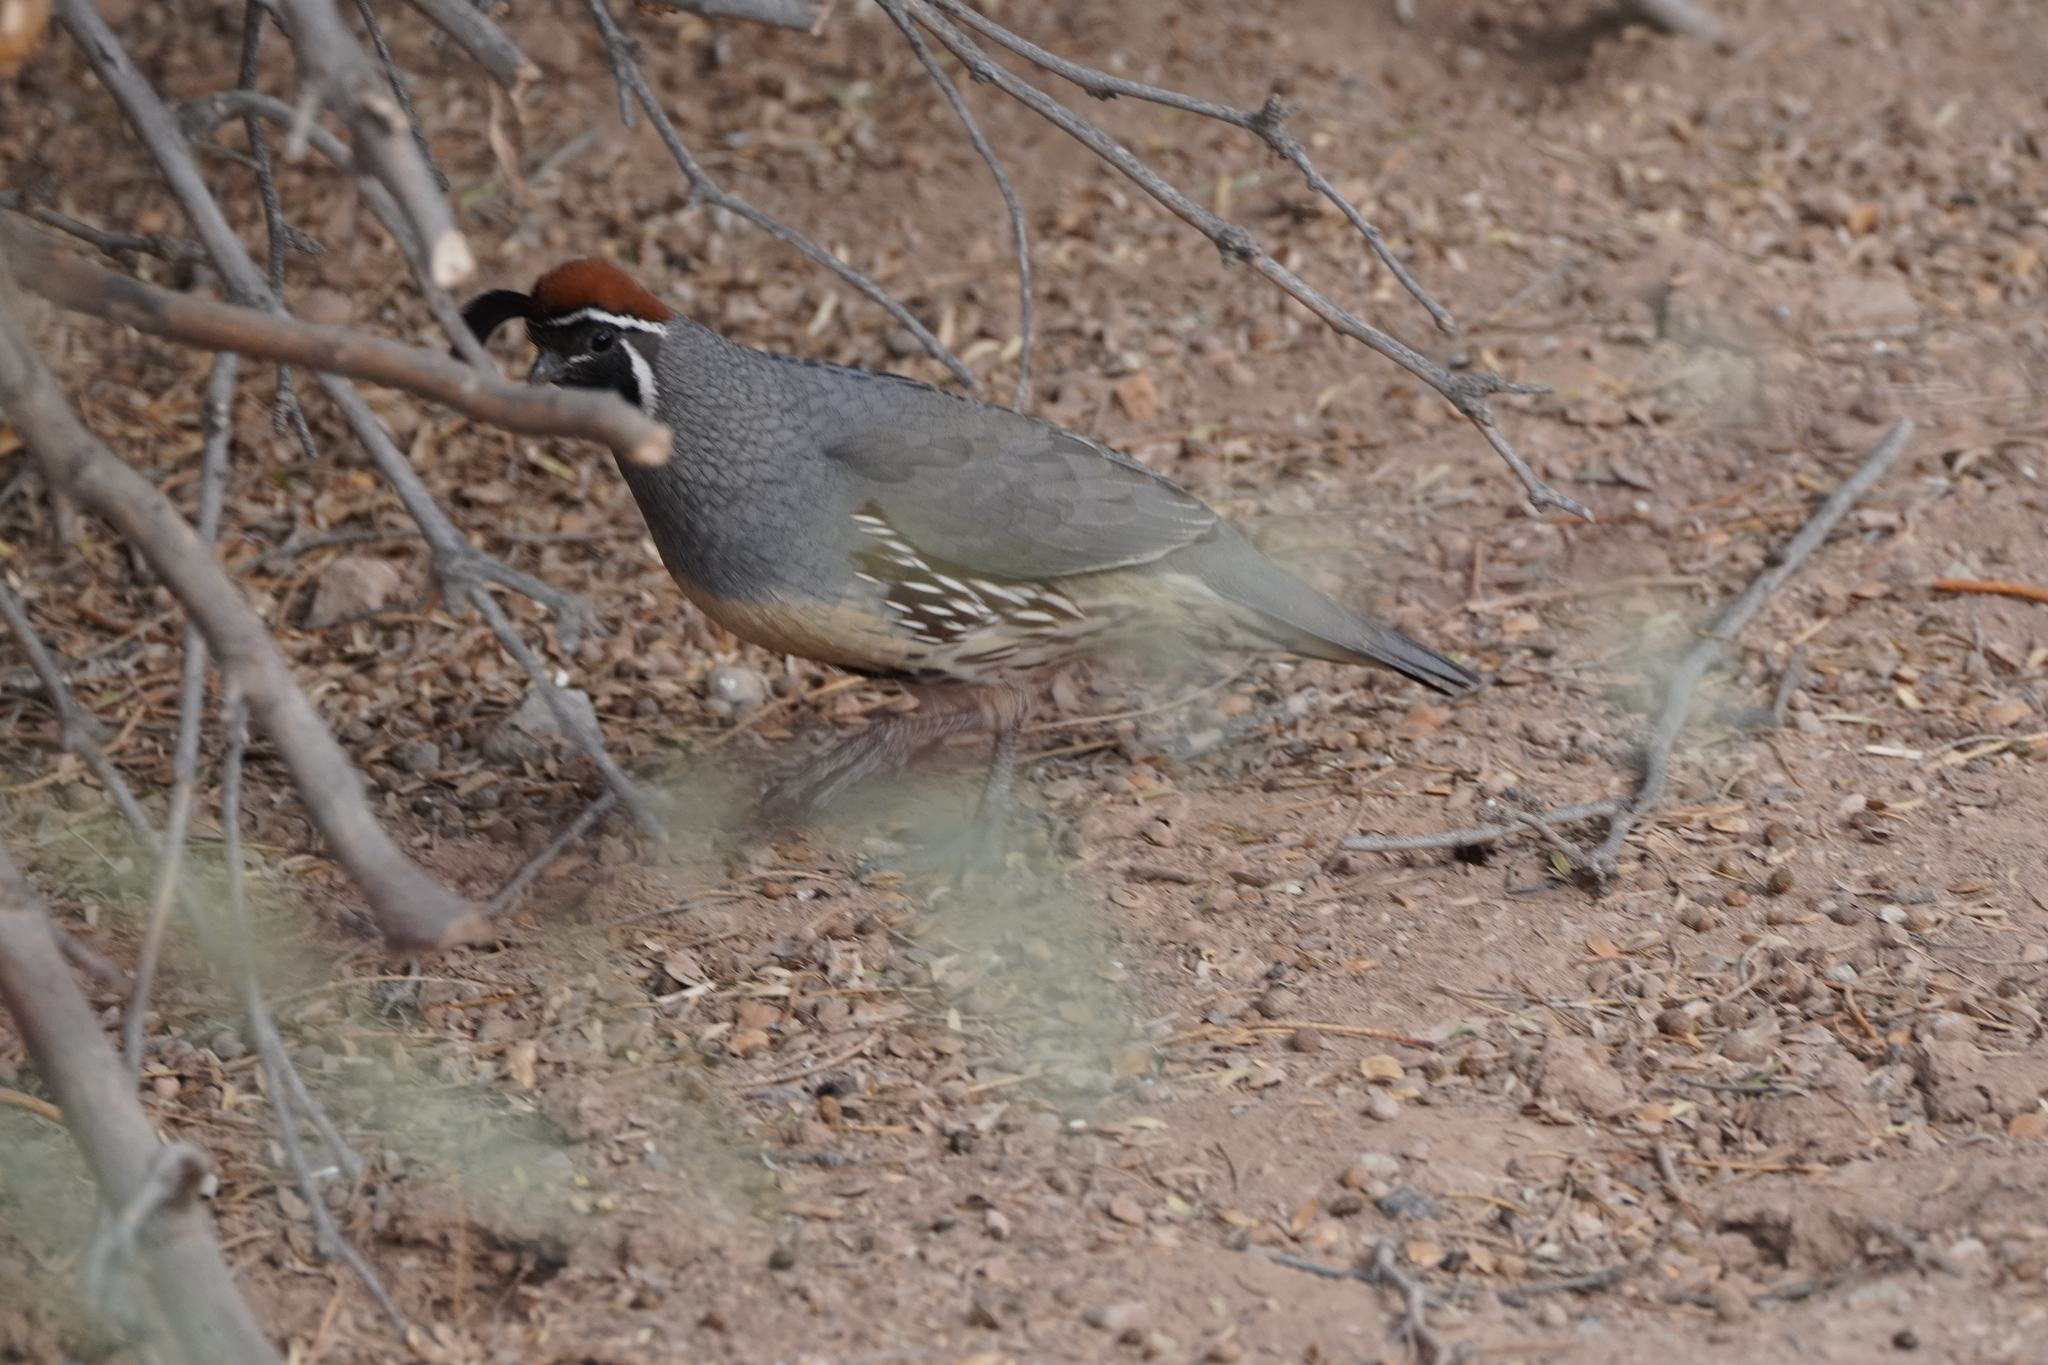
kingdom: Animalia
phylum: Chordata
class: Aves
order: Galliformes
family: Odontophoridae
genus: Callipepla
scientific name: Callipepla gambelii
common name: Gambel's quail
